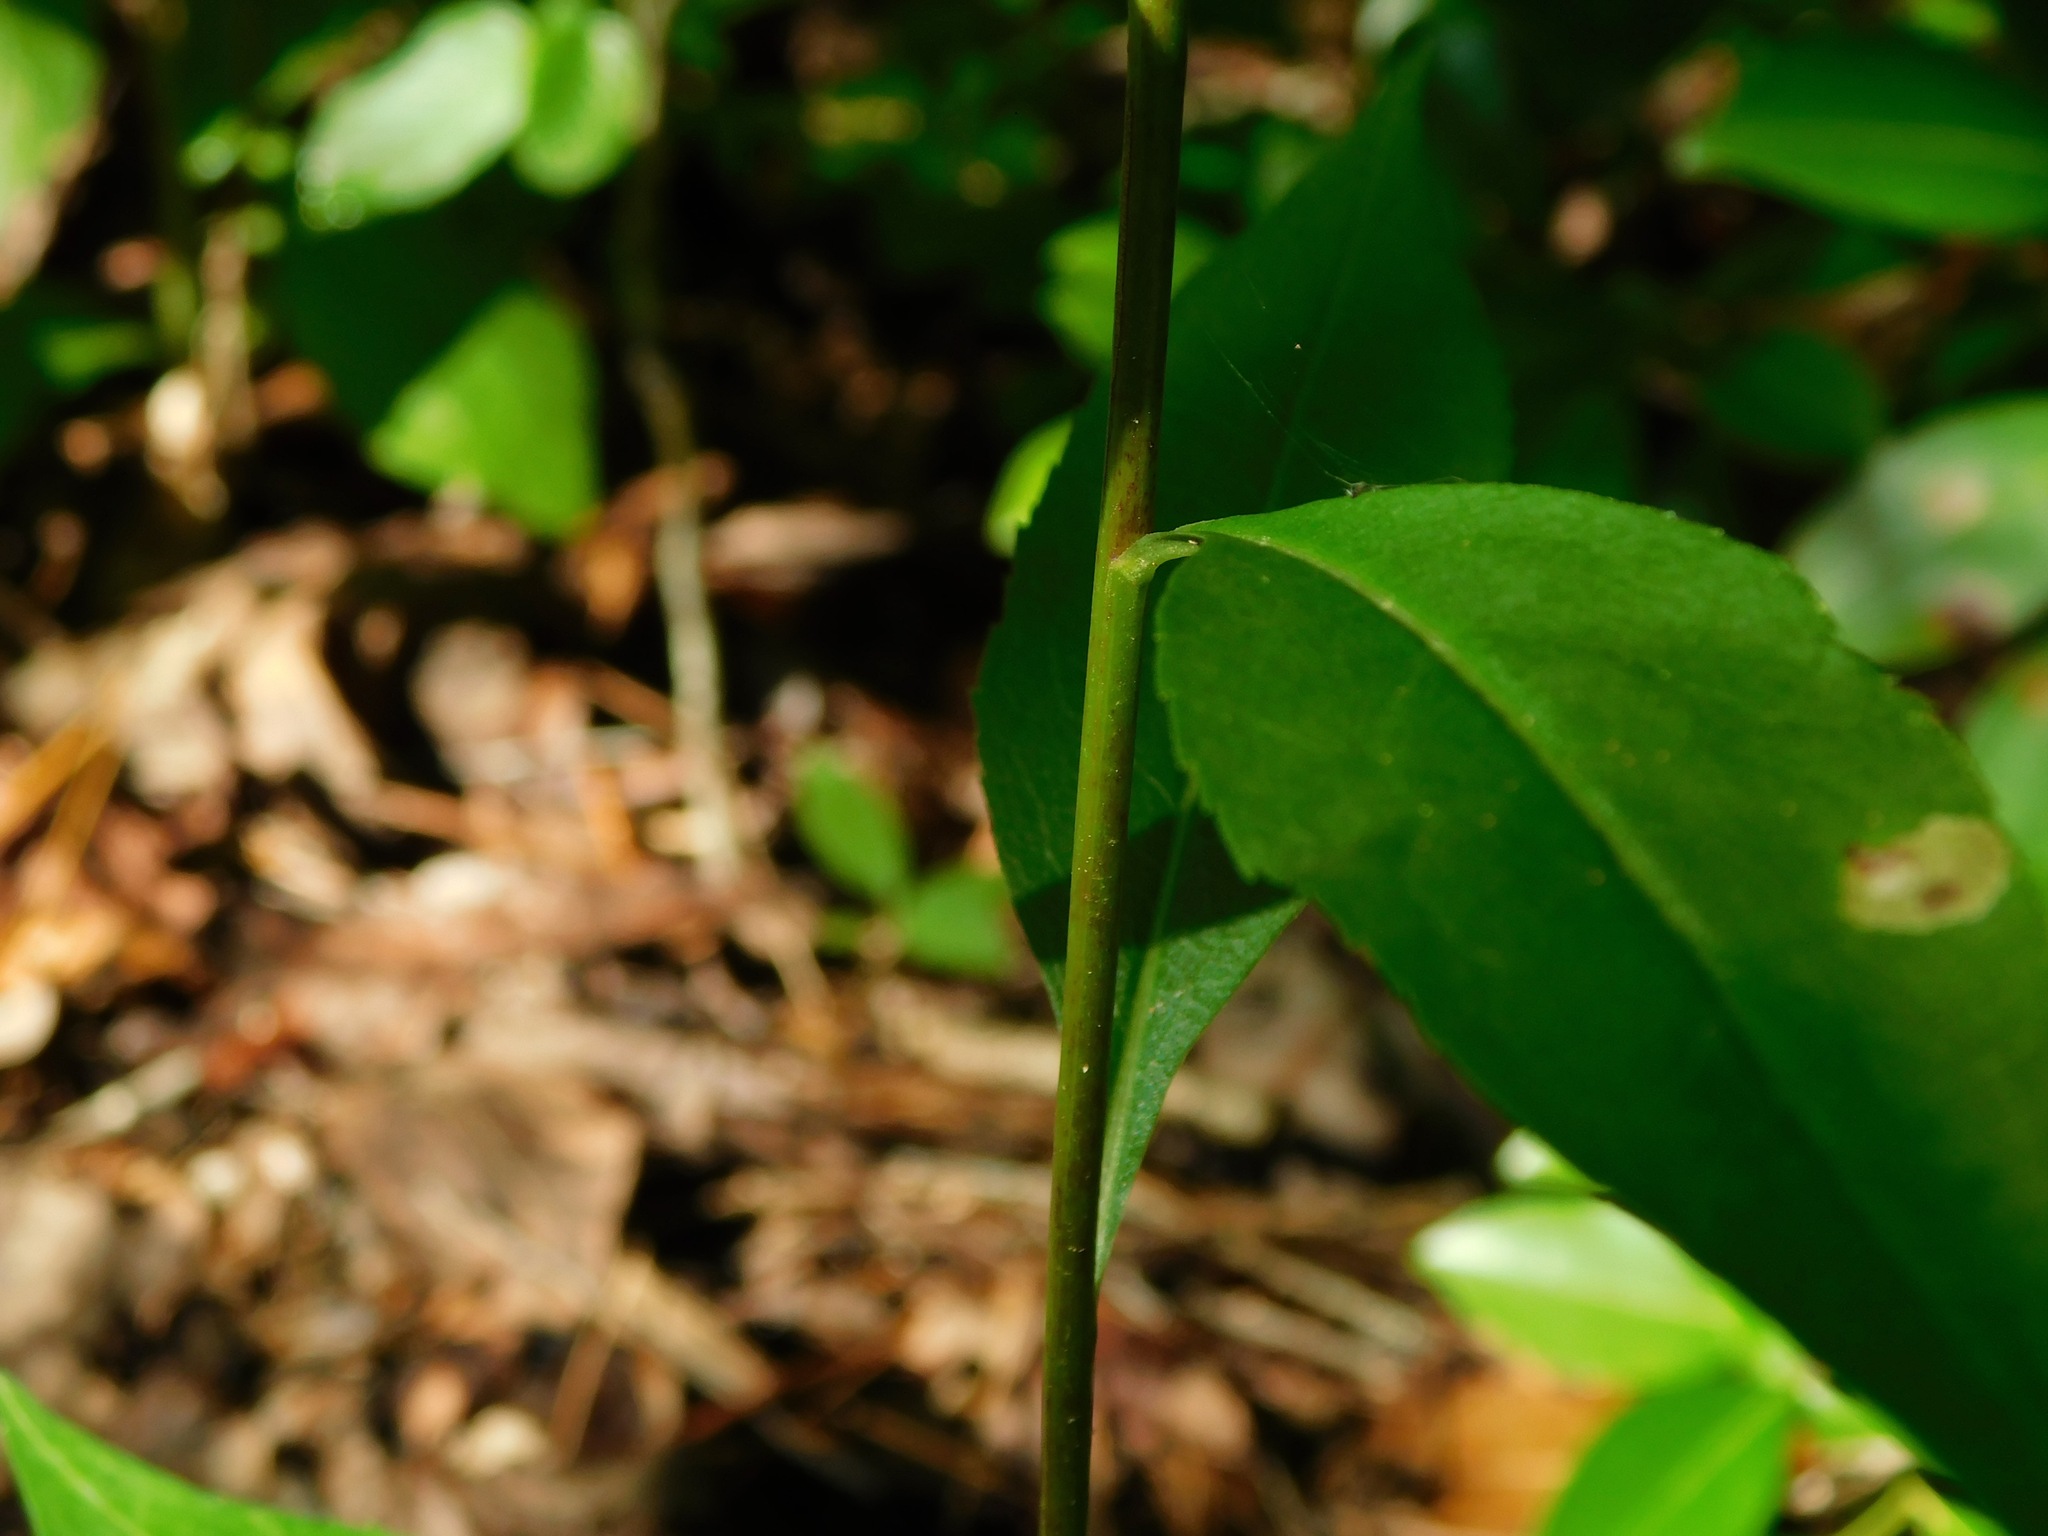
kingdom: Plantae
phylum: Tracheophyta
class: Magnoliopsida
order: Asterales
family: Asteraceae
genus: Solidago
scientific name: Solidago vaseyi
